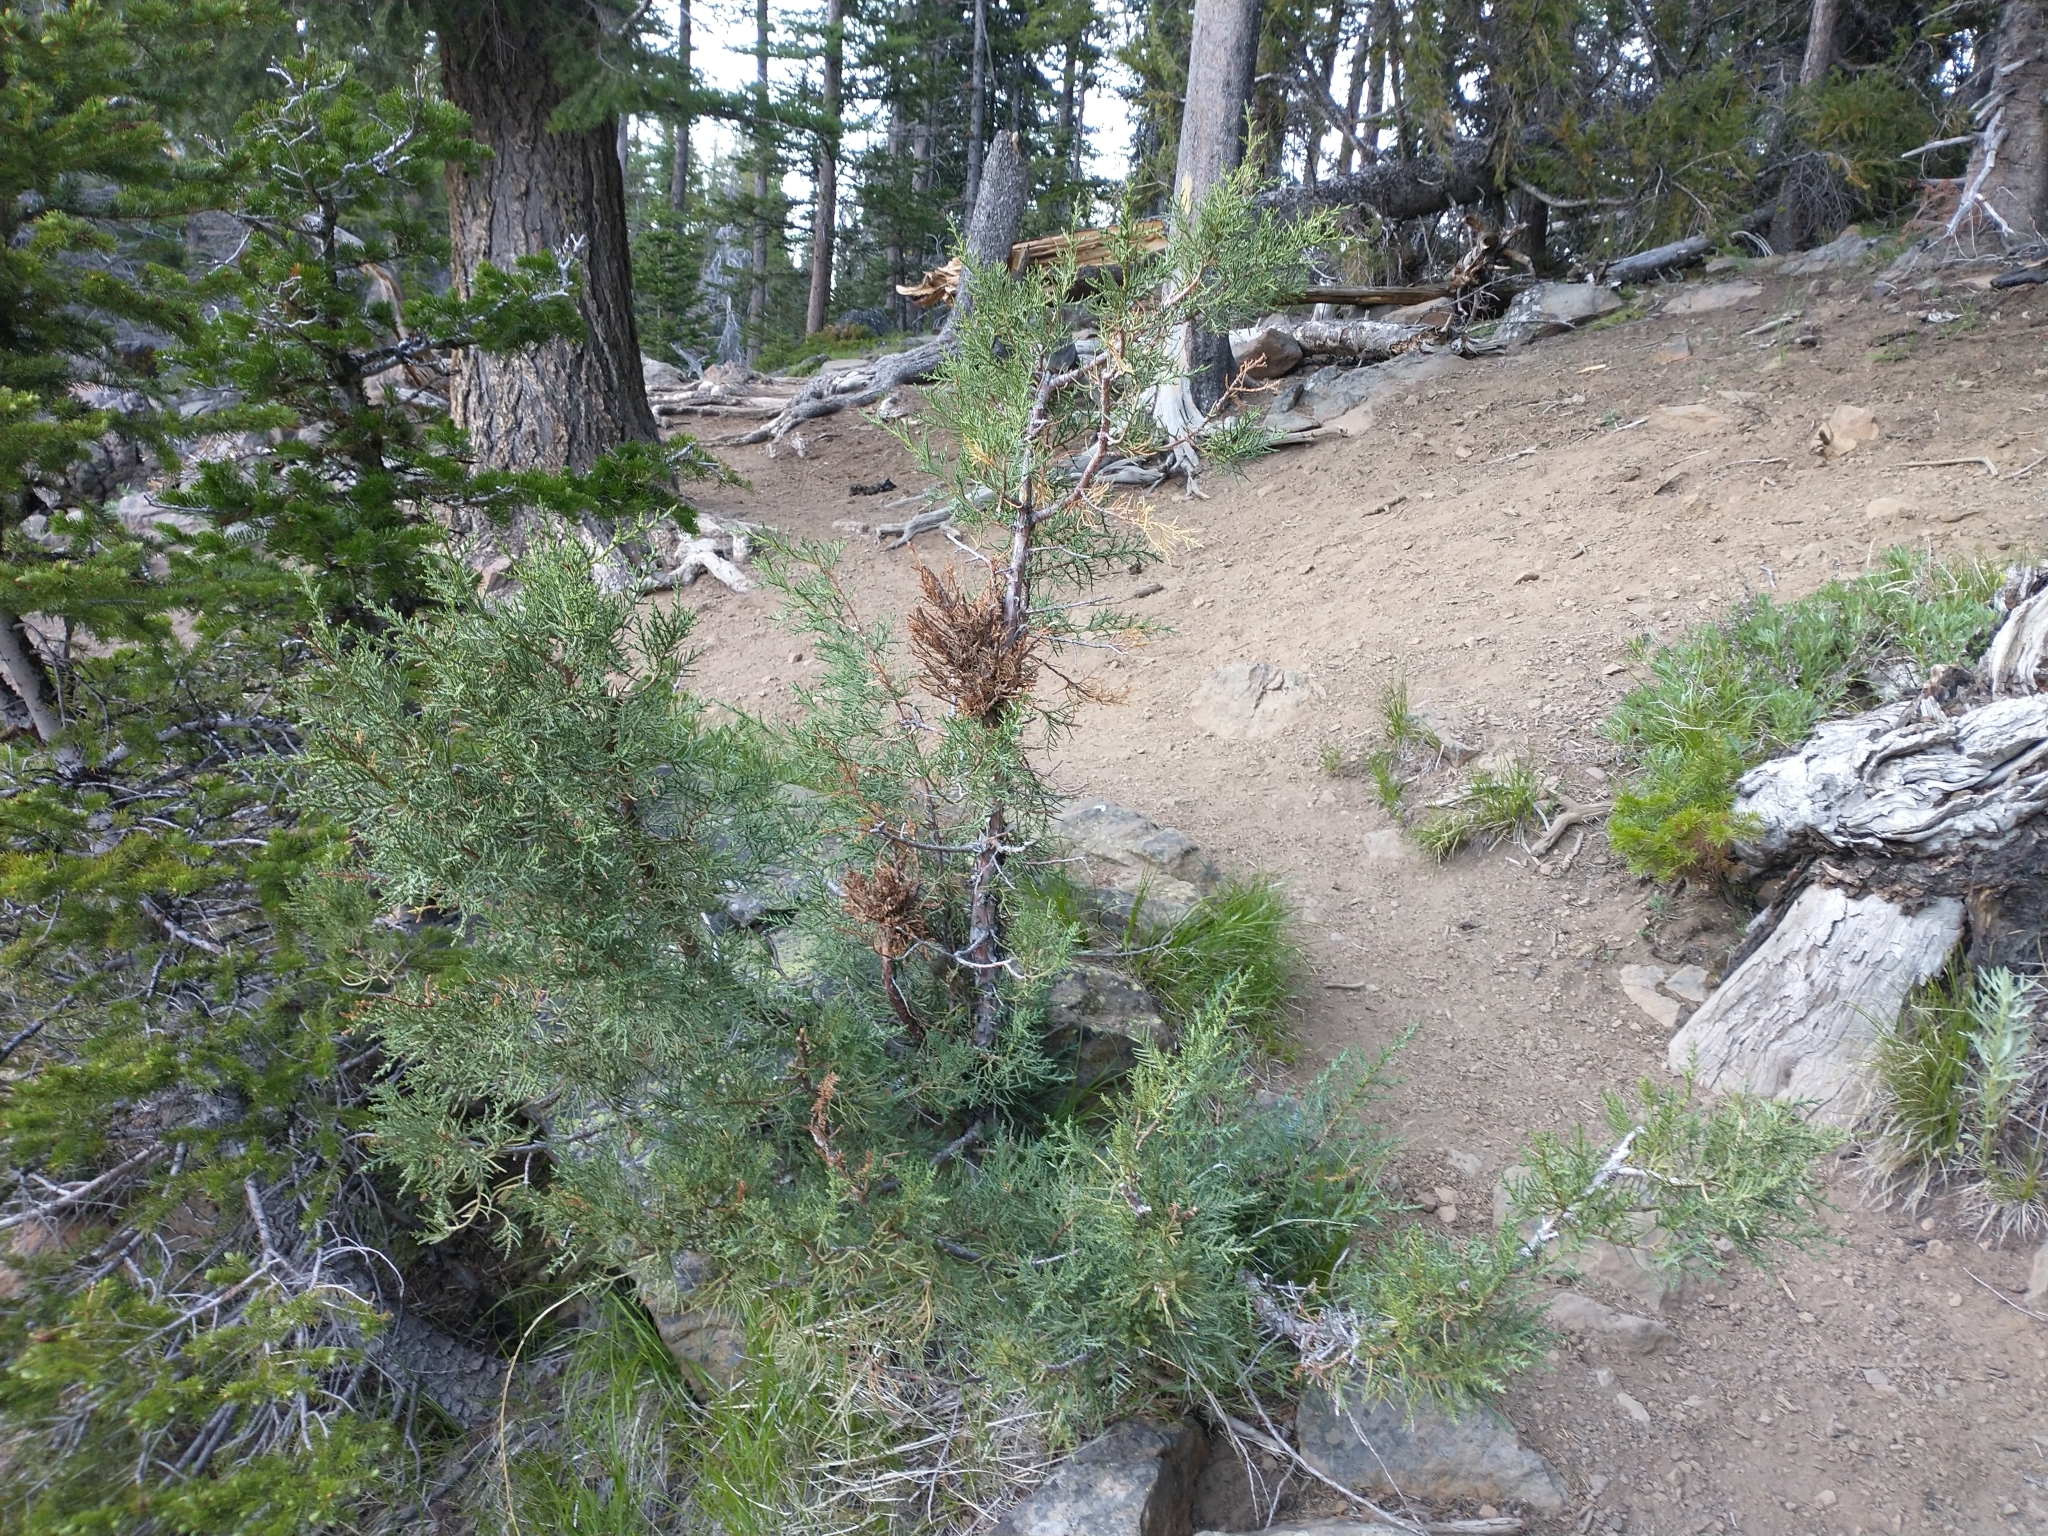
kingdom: Plantae
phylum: Tracheophyta
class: Pinopsida
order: Pinales
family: Cupressaceae
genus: Juniperus
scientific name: Juniperus occidentalis
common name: Western juniper
